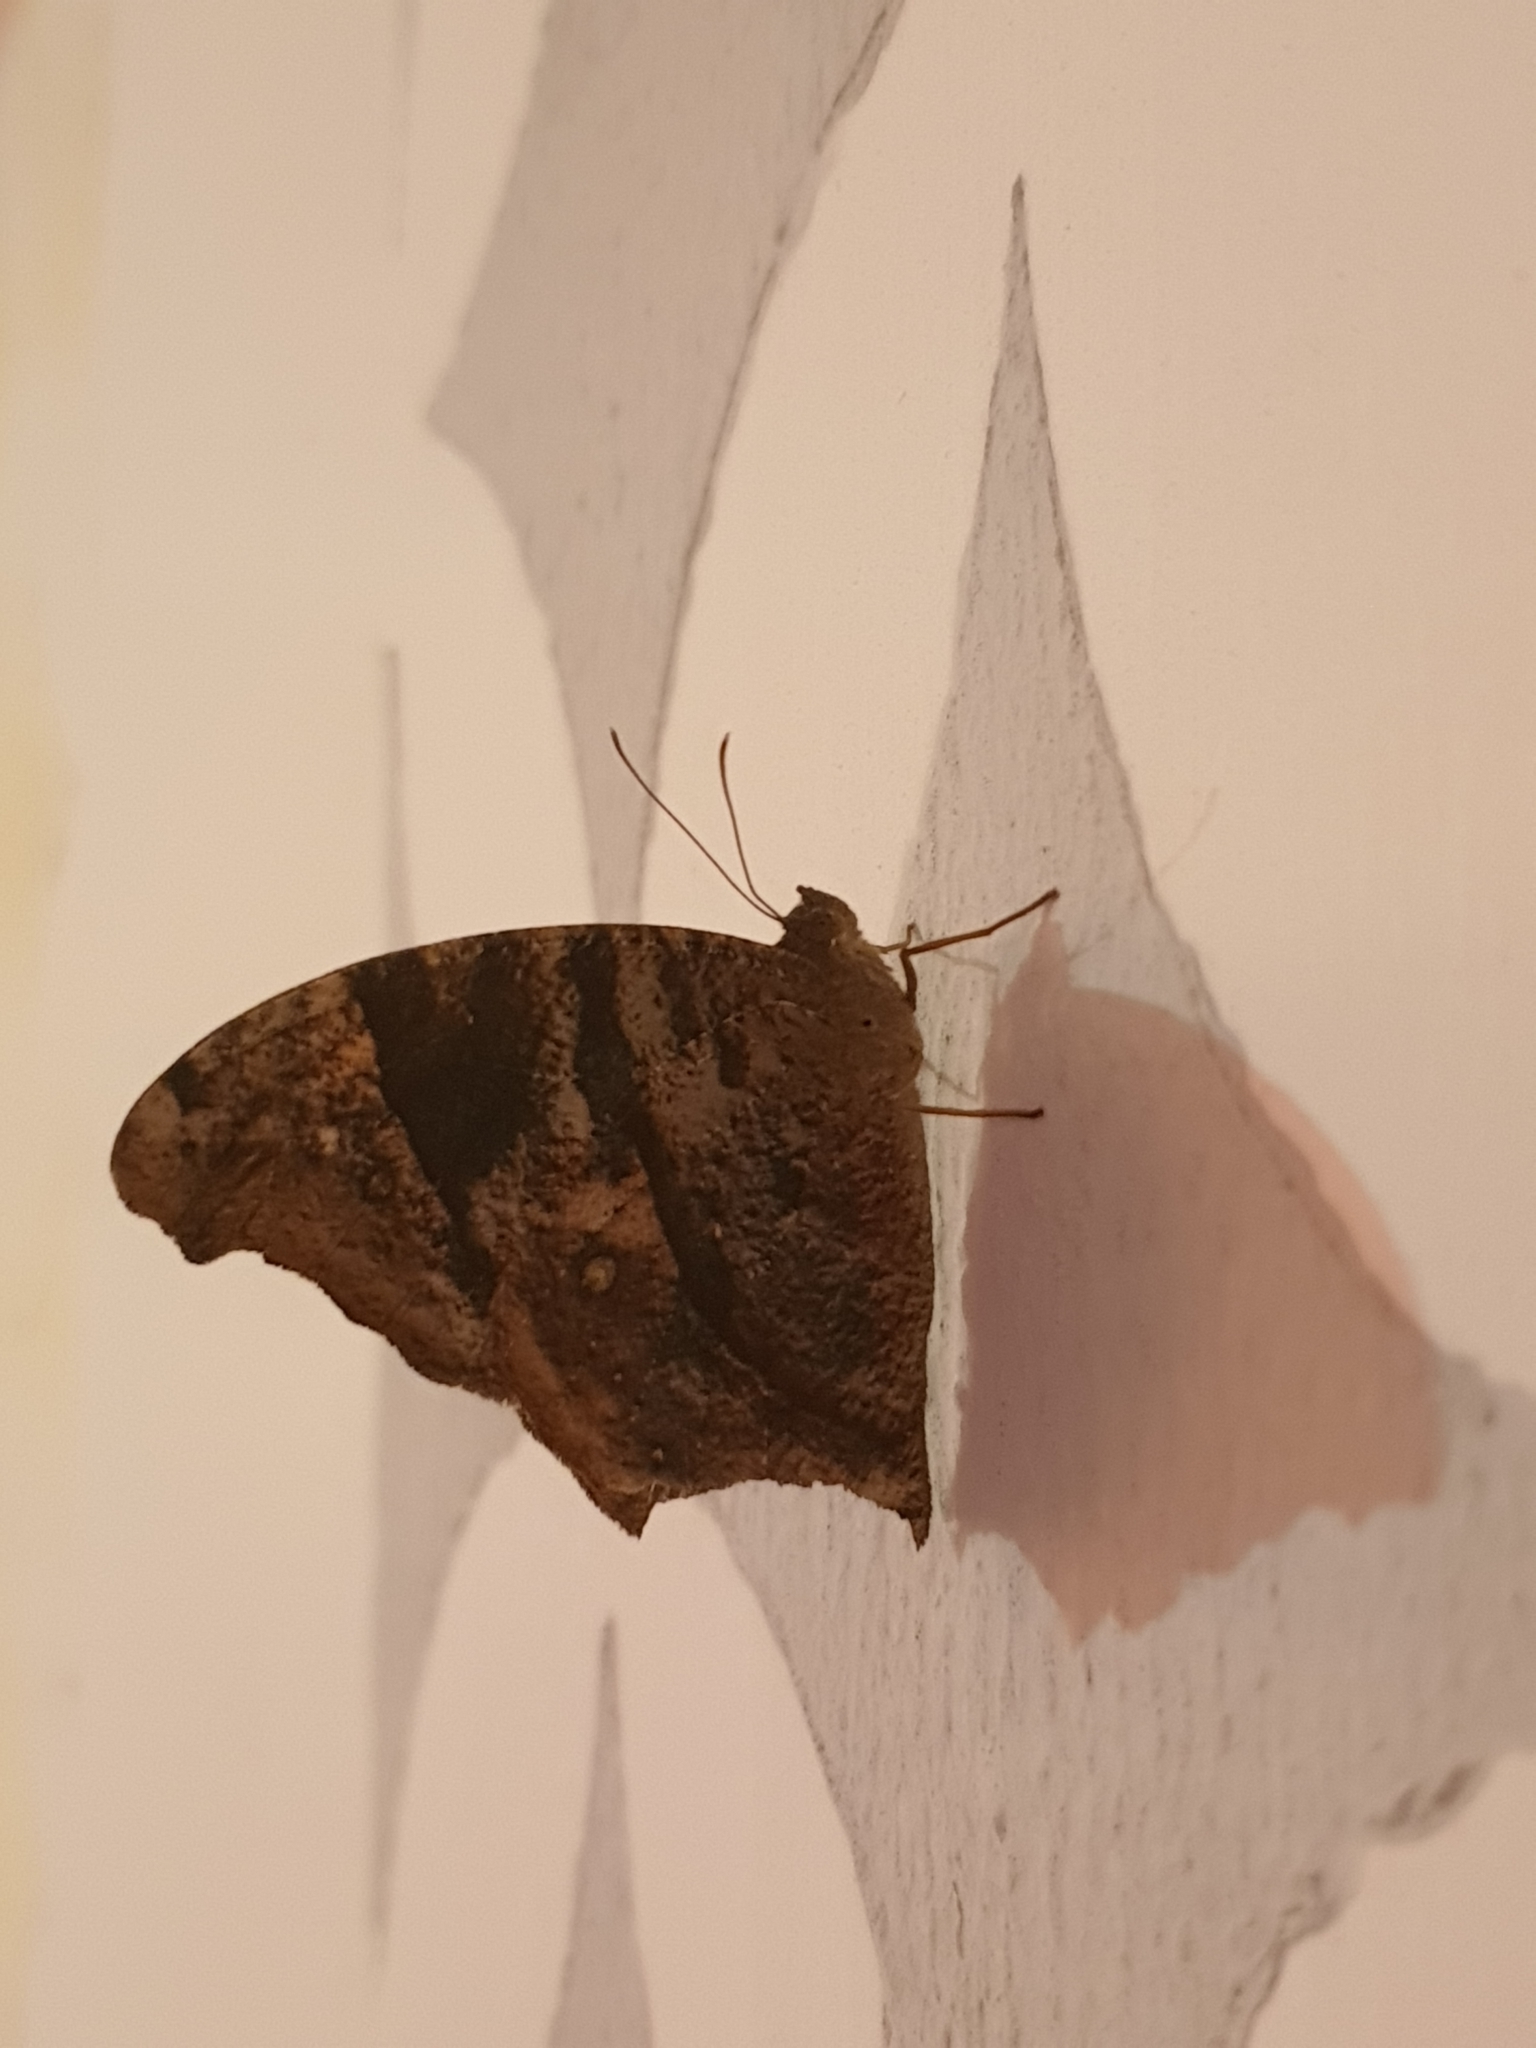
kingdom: Animalia
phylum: Arthropoda
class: Insecta
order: Lepidoptera
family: Nymphalidae
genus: Melanitis
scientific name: Melanitis phedima
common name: Dark evening brown
